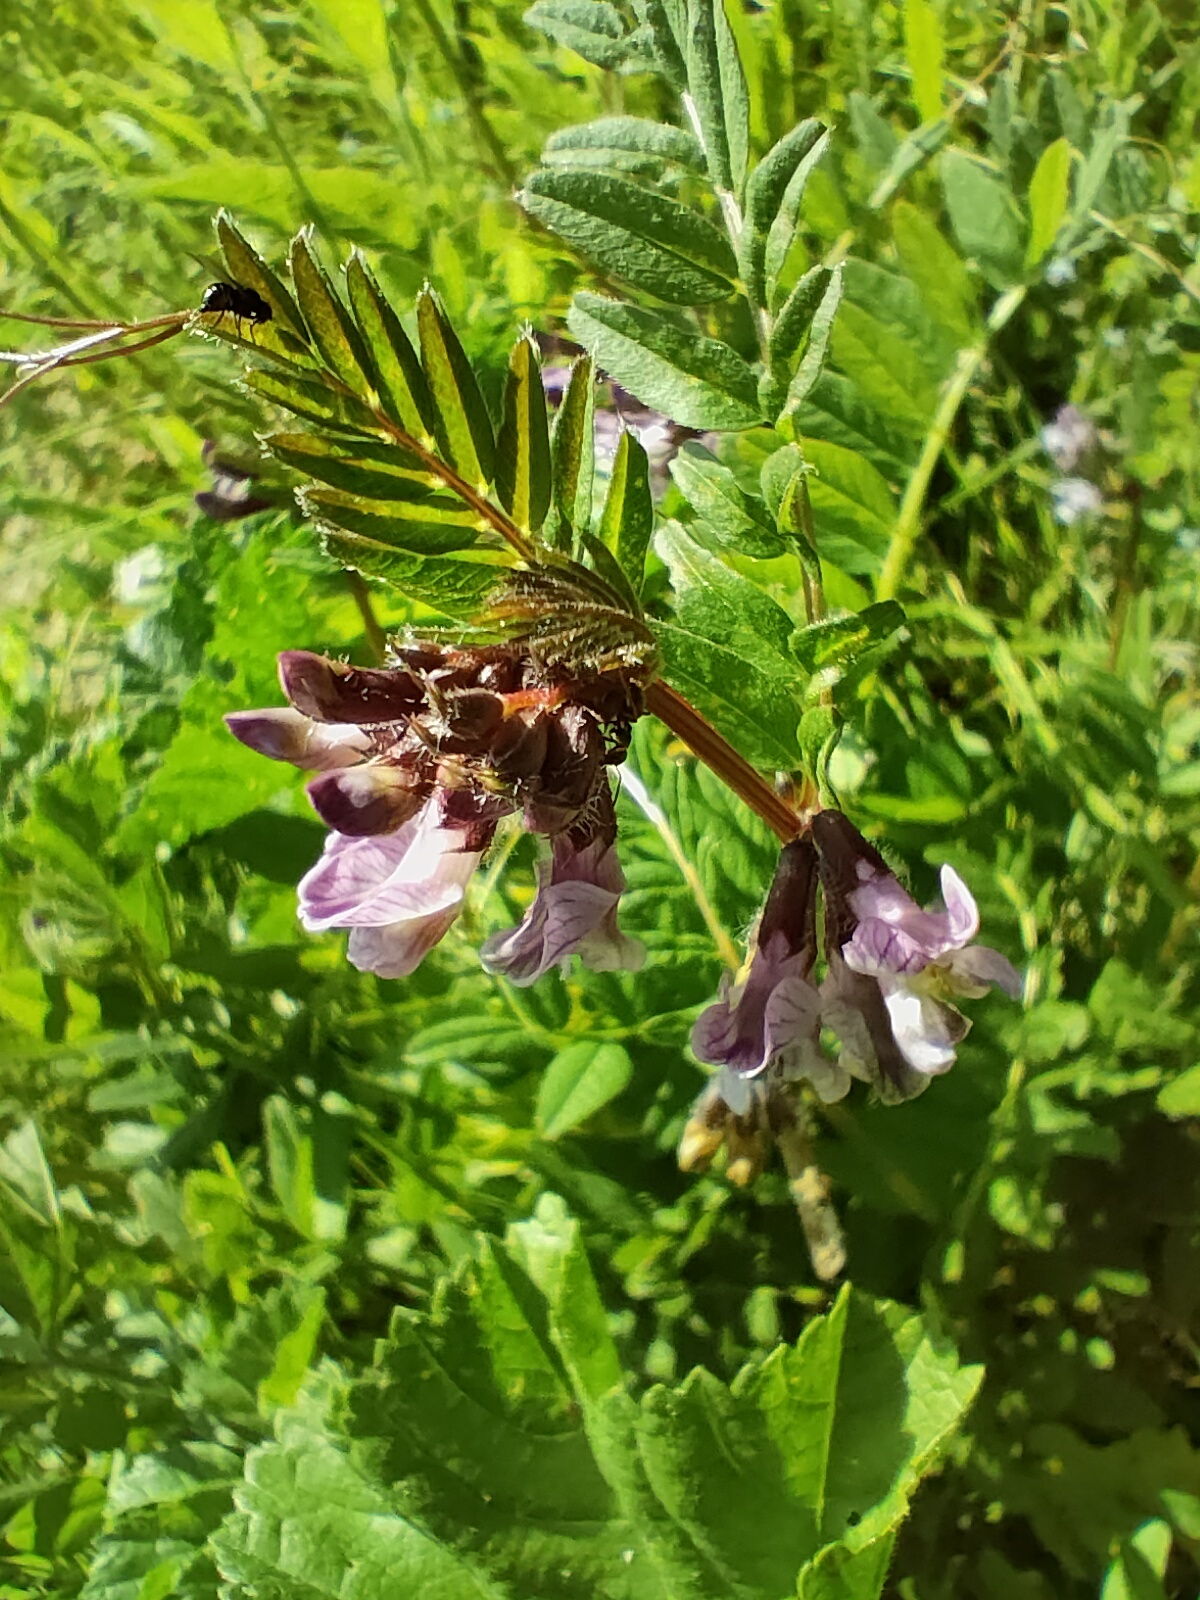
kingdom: Plantae
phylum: Tracheophyta
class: Magnoliopsida
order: Fabales
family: Fabaceae
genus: Vicia
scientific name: Vicia sepium
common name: Bush vetch
